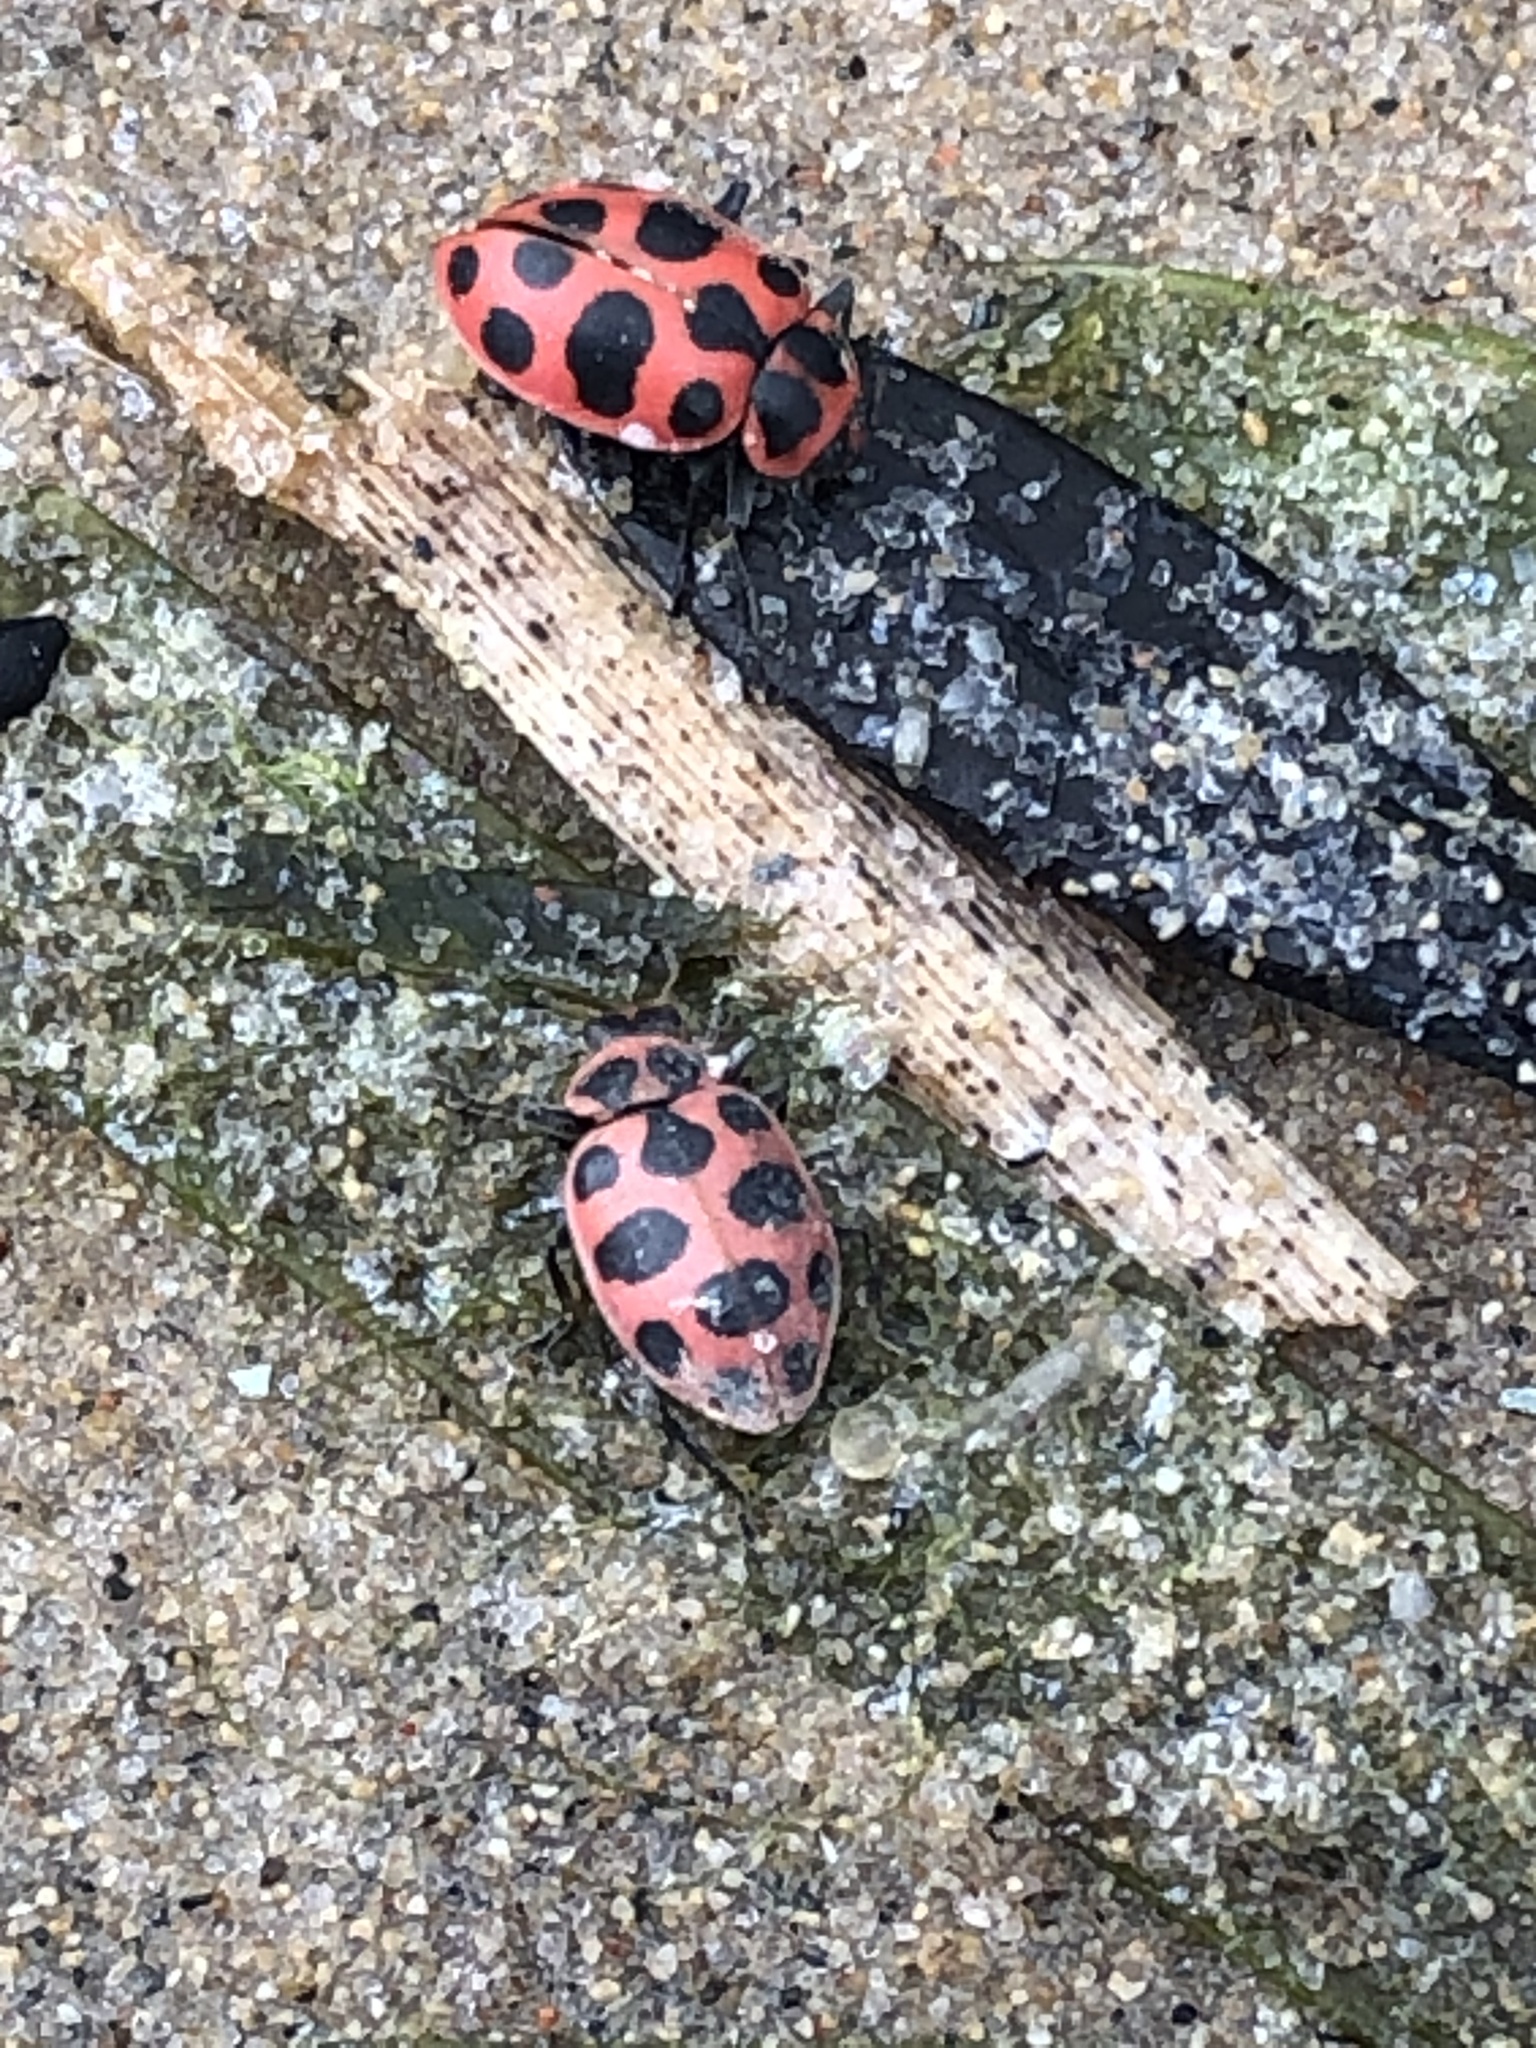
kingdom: Animalia
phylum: Arthropoda
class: Insecta
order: Coleoptera
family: Coccinellidae
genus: Coleomegilla
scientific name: Coleomegilla maculata
